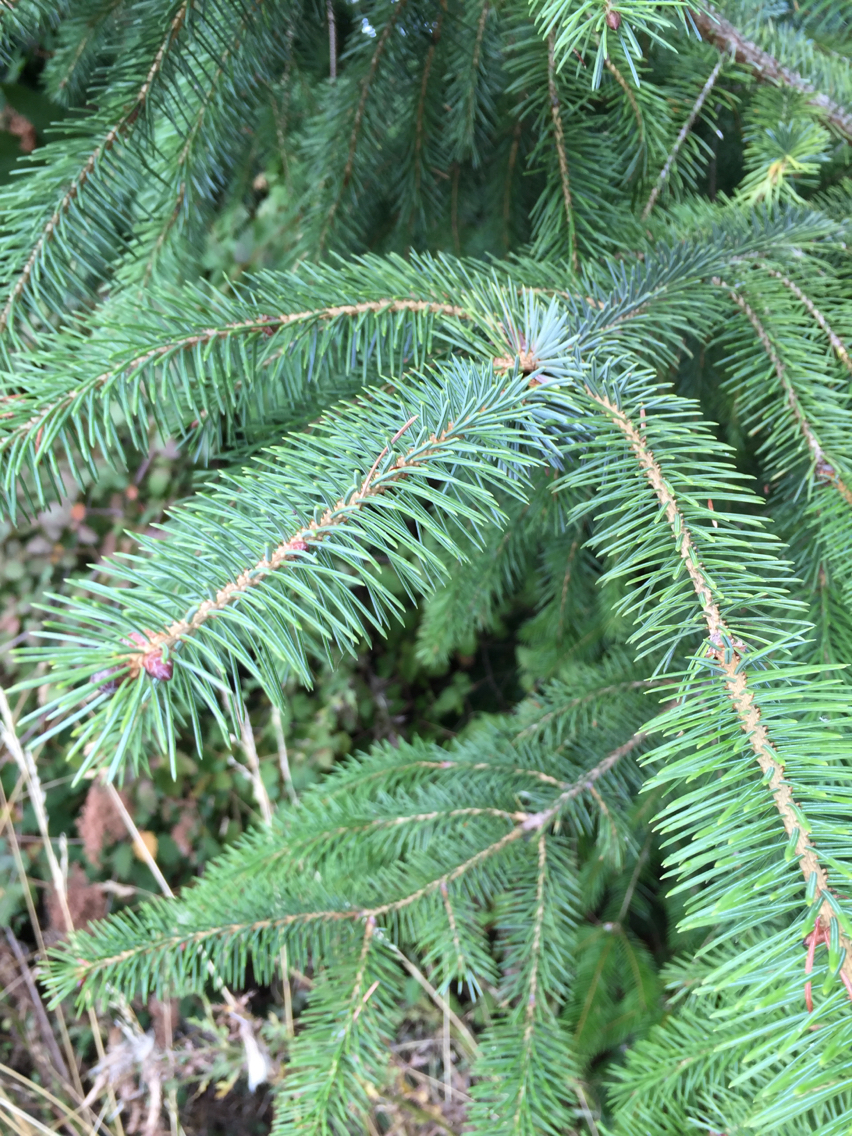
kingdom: Plantae
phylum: Tracheophyta
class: Pinopsida
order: Pinales
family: Pinaceae
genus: Picea
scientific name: Picea sitchensis
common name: Sitka spruce
